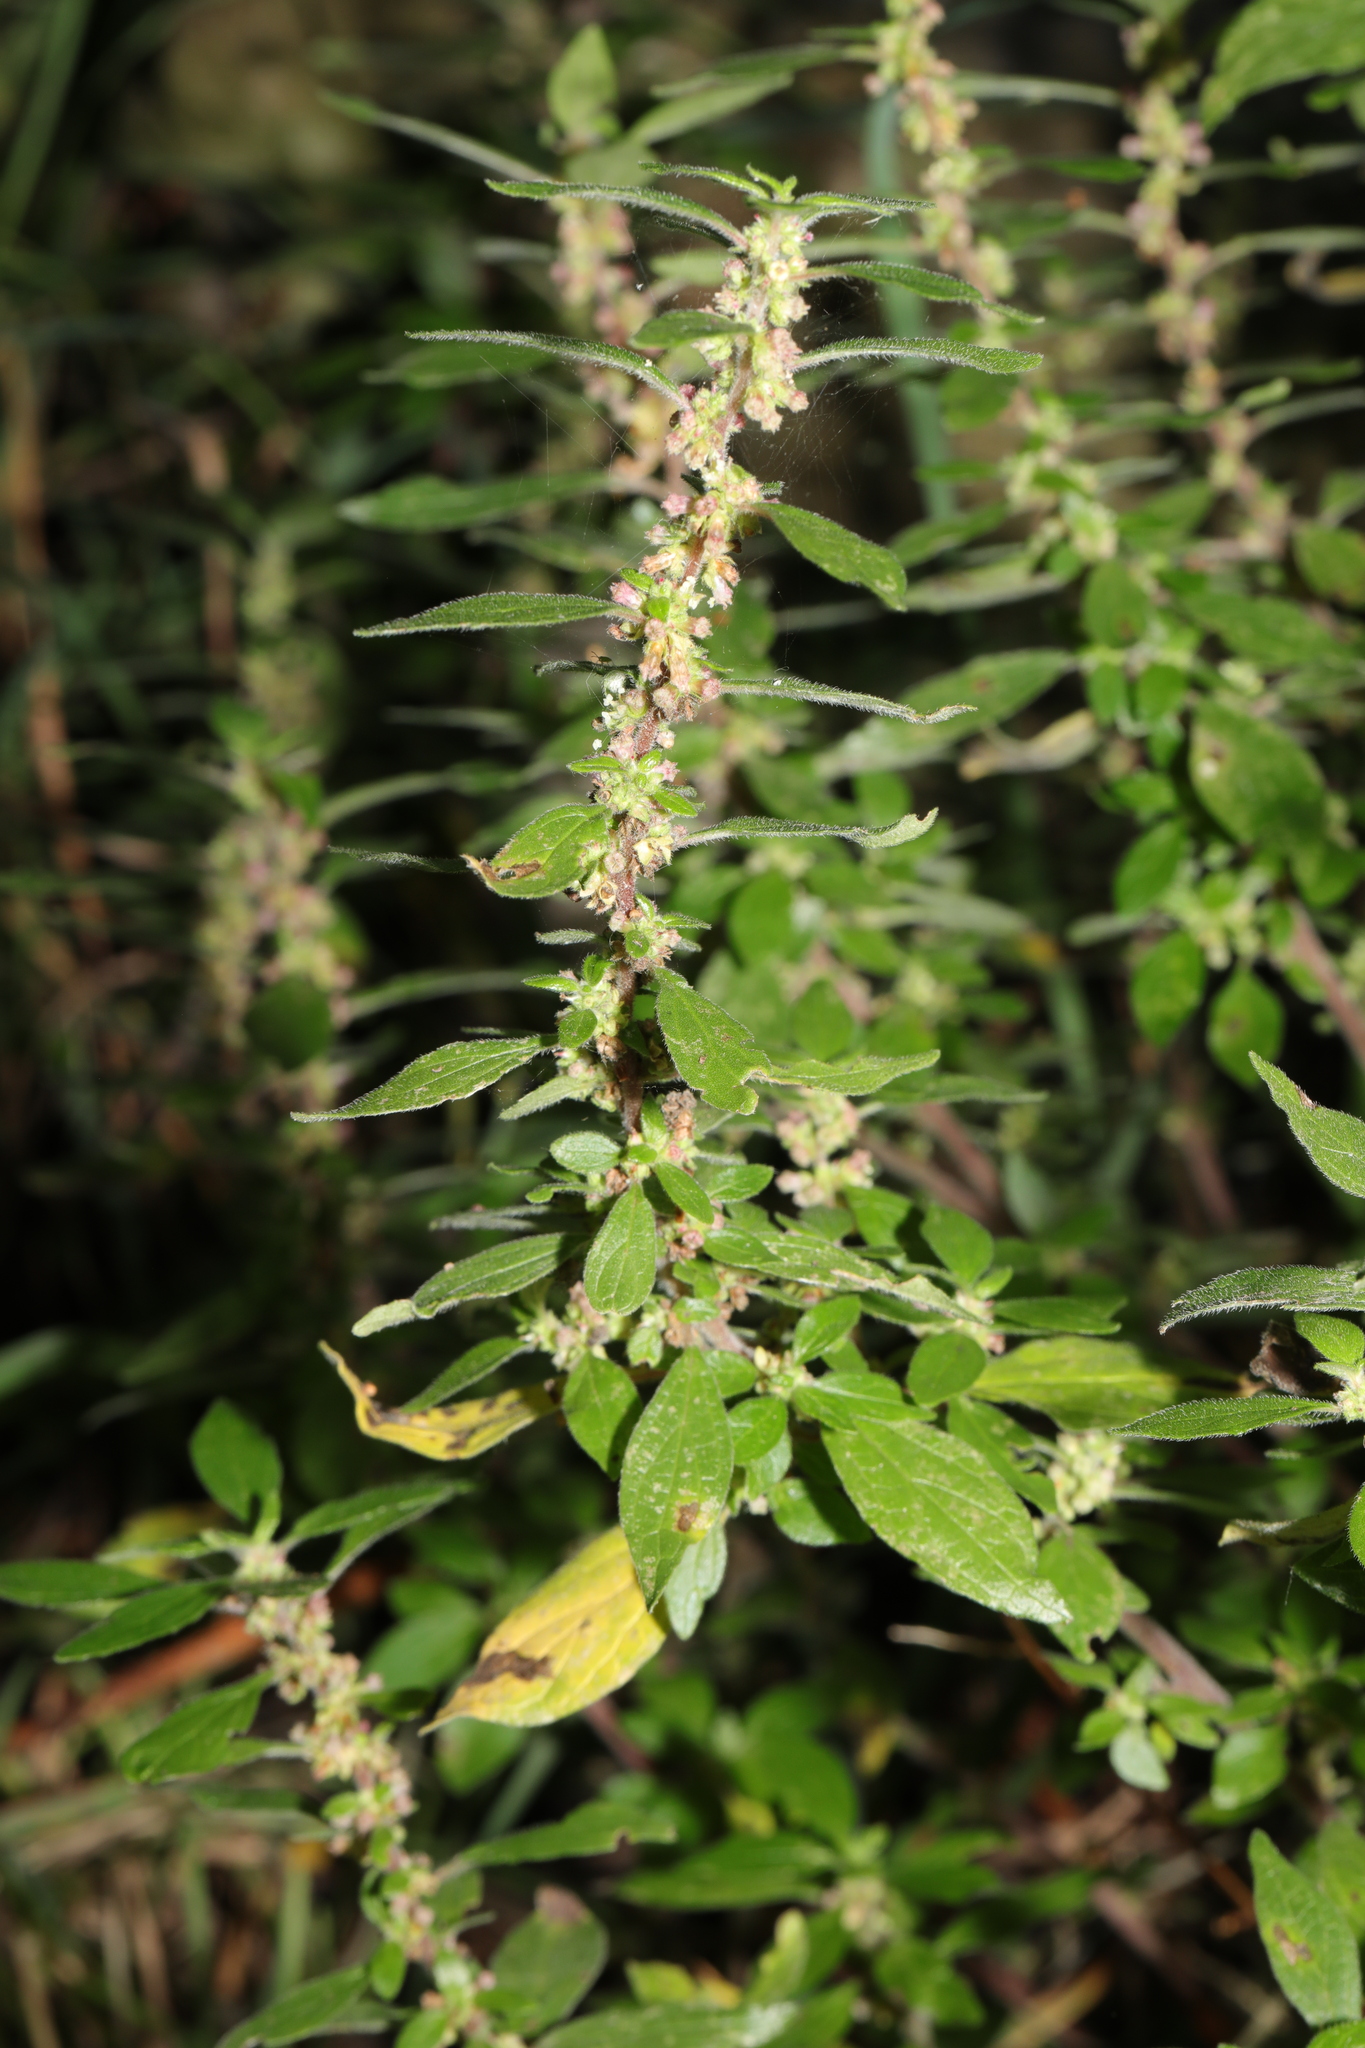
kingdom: Plantae
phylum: Tracheophyta
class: Magnoliopsida
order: Rosales
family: Urticaceae
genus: Parietaria
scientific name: Parietaria judaica
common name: Pellitory-of-the-wall
